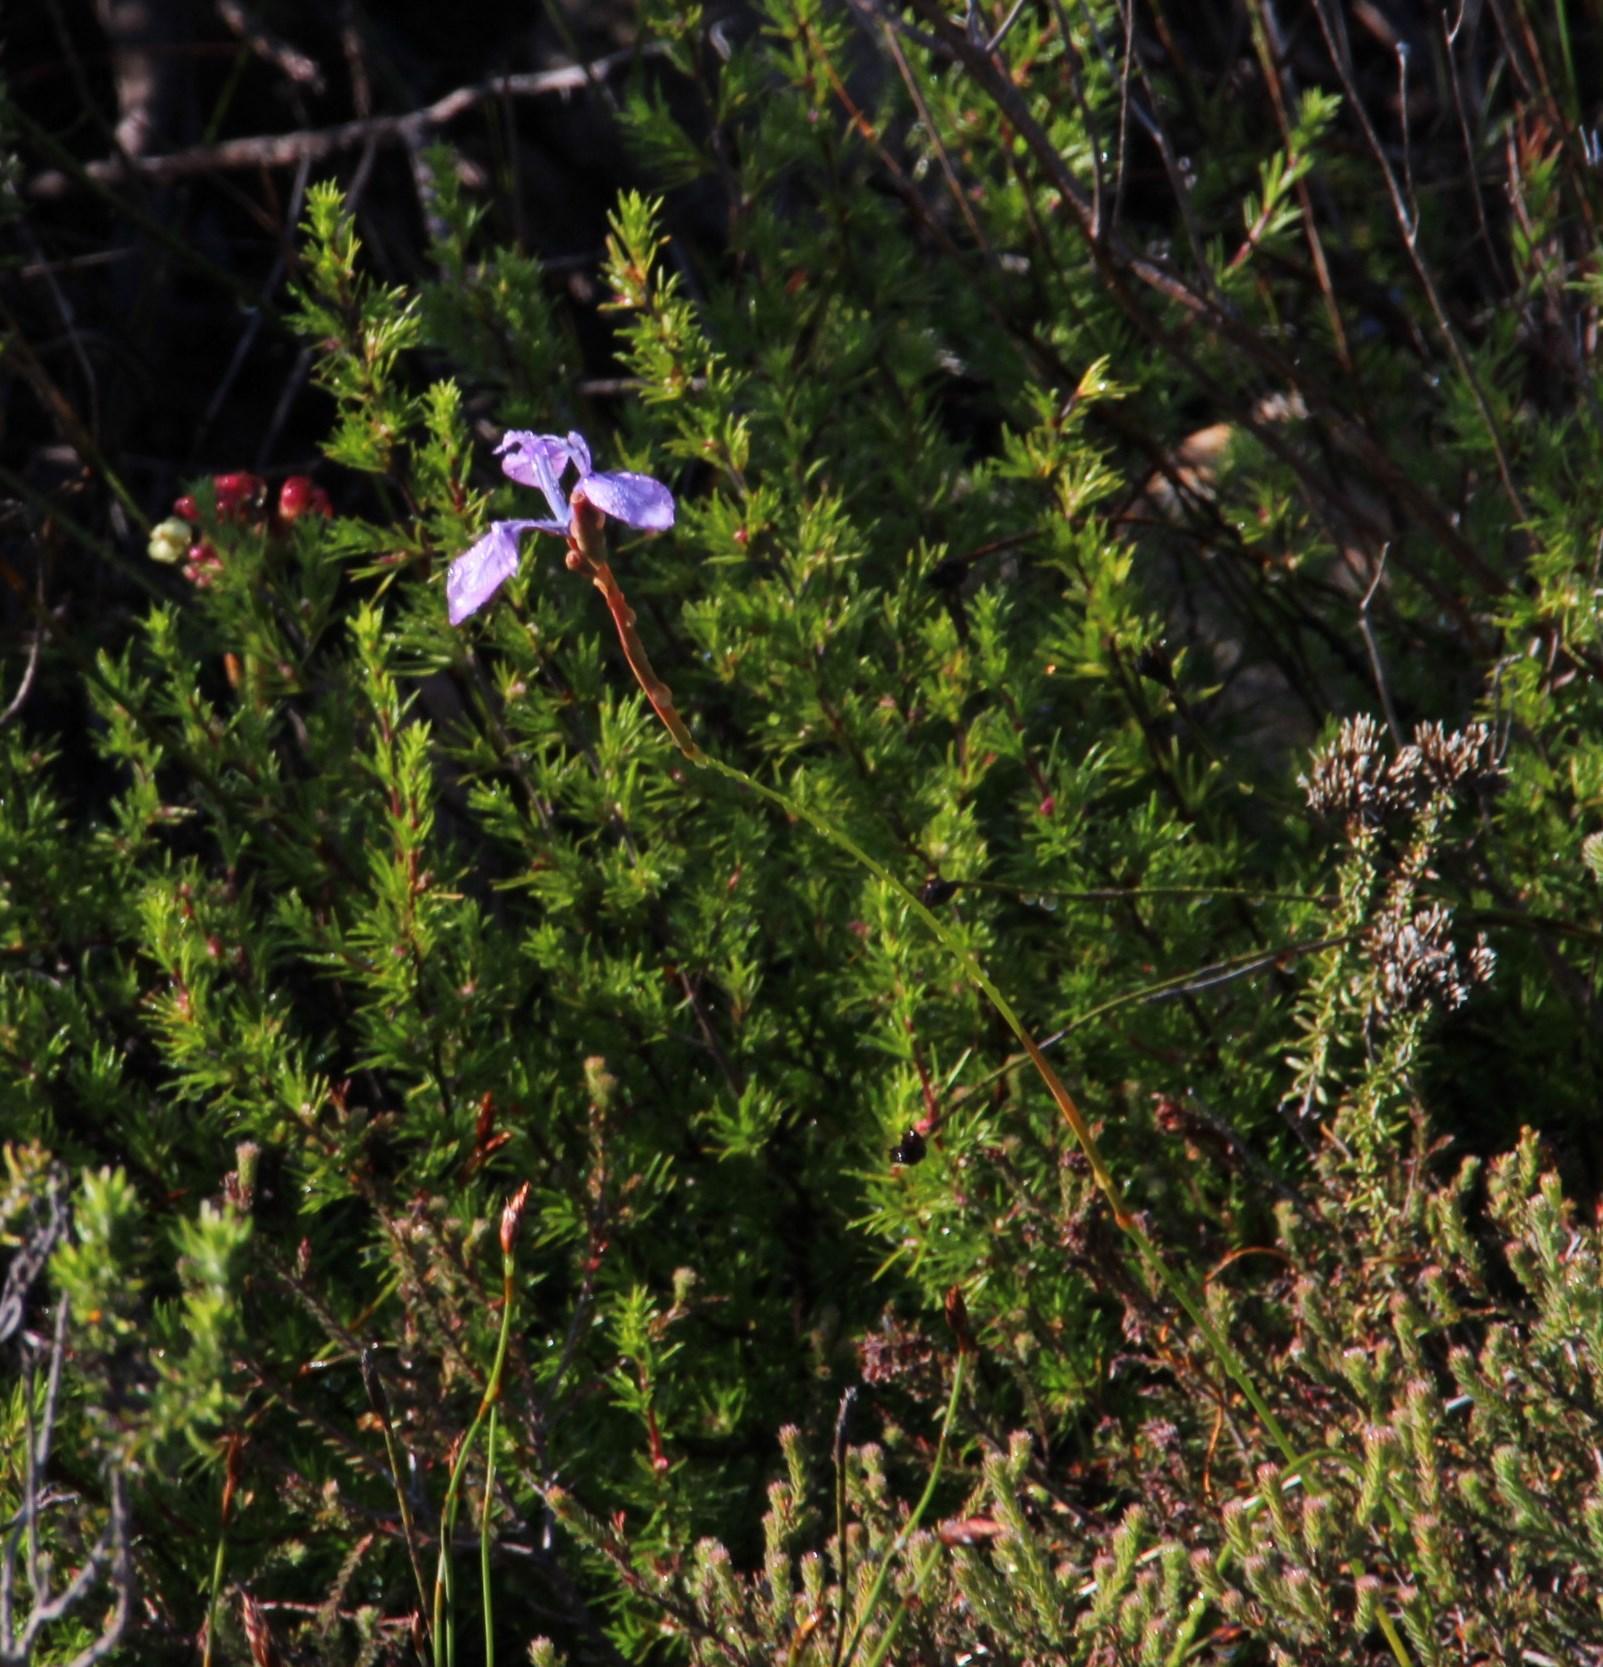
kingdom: Plantae
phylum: Tracheophyta
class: Liliopsida
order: Asparagales
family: Iridaceae
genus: Moraea
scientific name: Moraea tripetala
